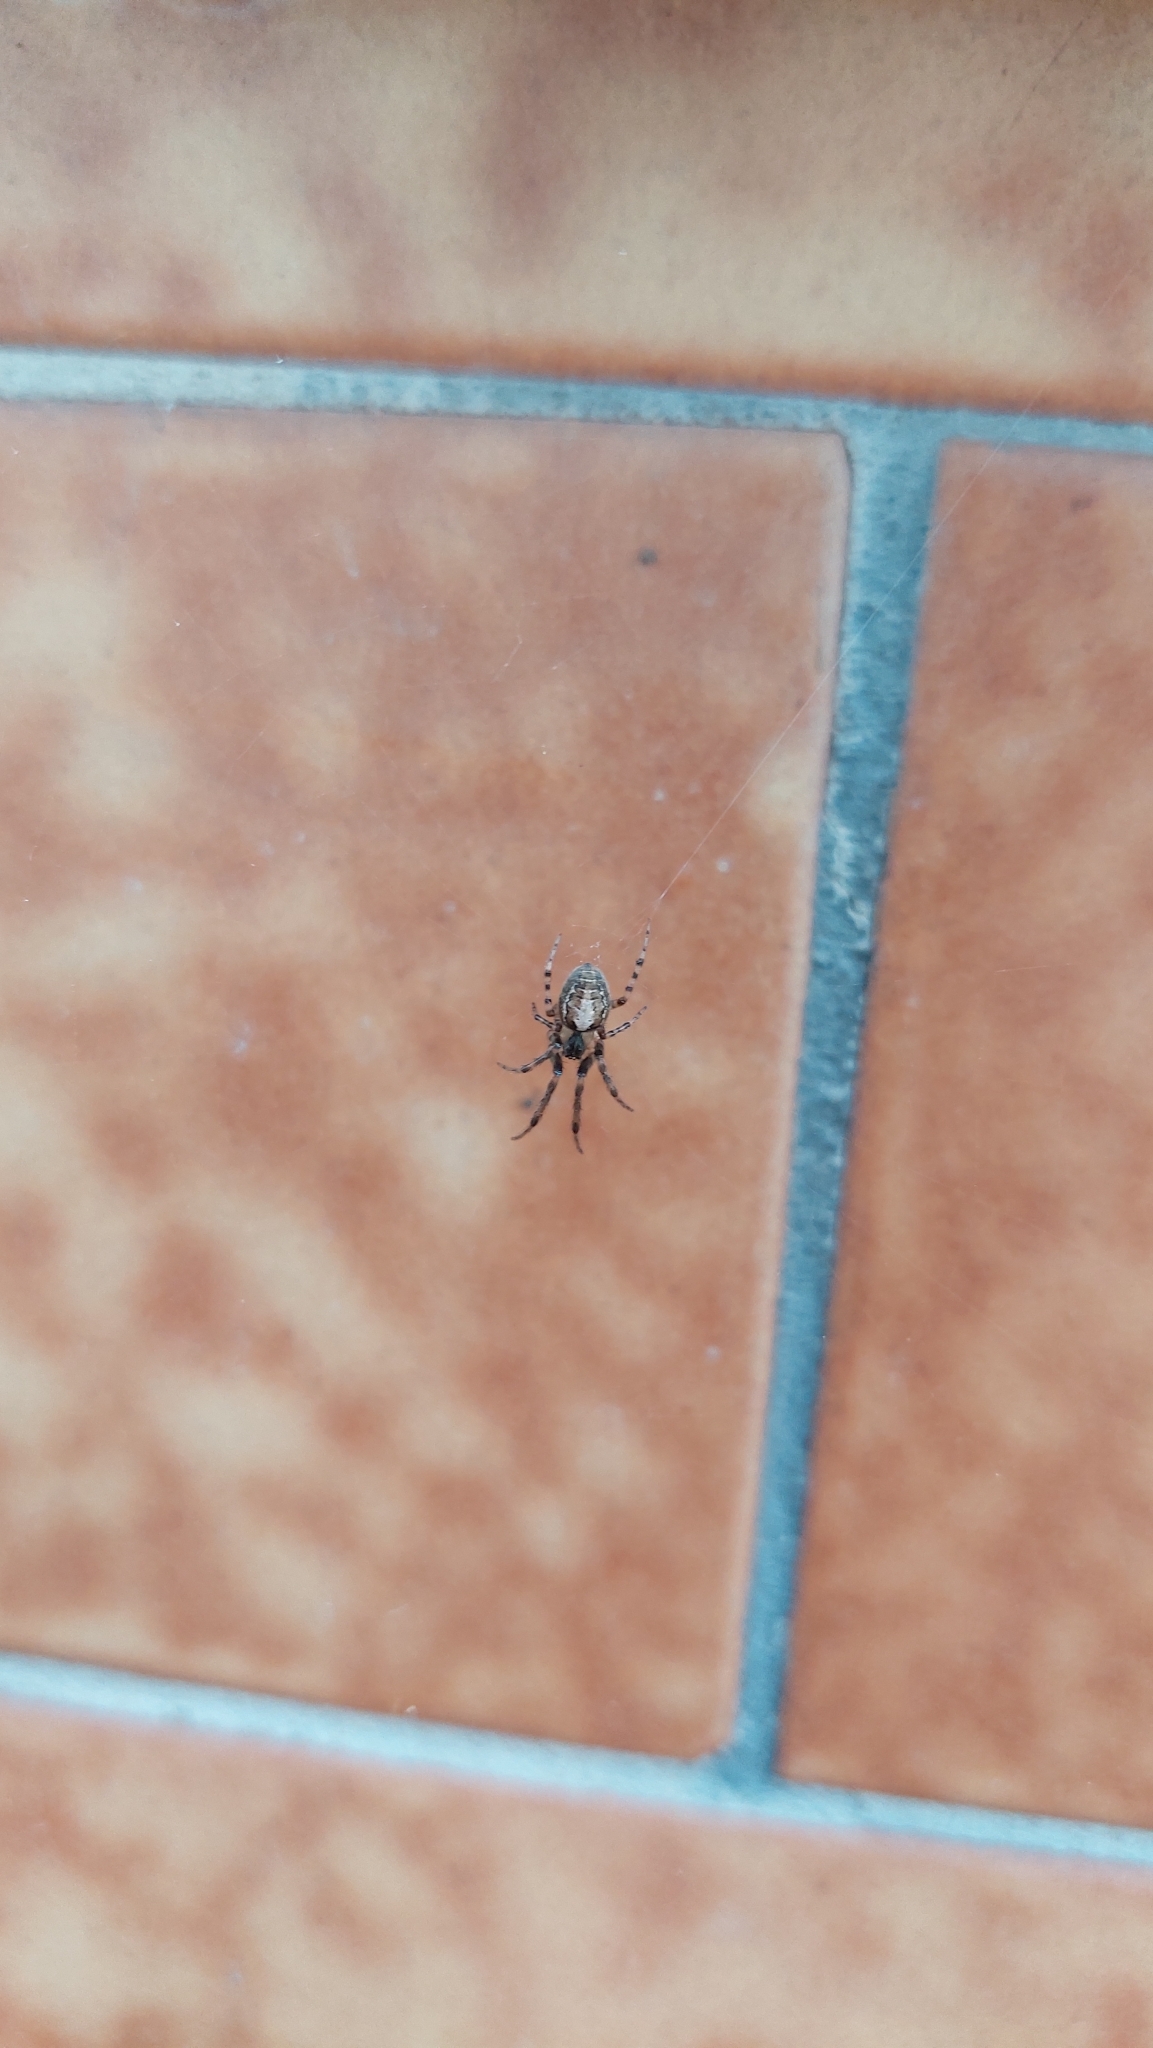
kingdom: Animalia
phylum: Arthropoda
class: Arachnida
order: Araneae
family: Araneidae
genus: Zygiella
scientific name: Zygiella x-notata
